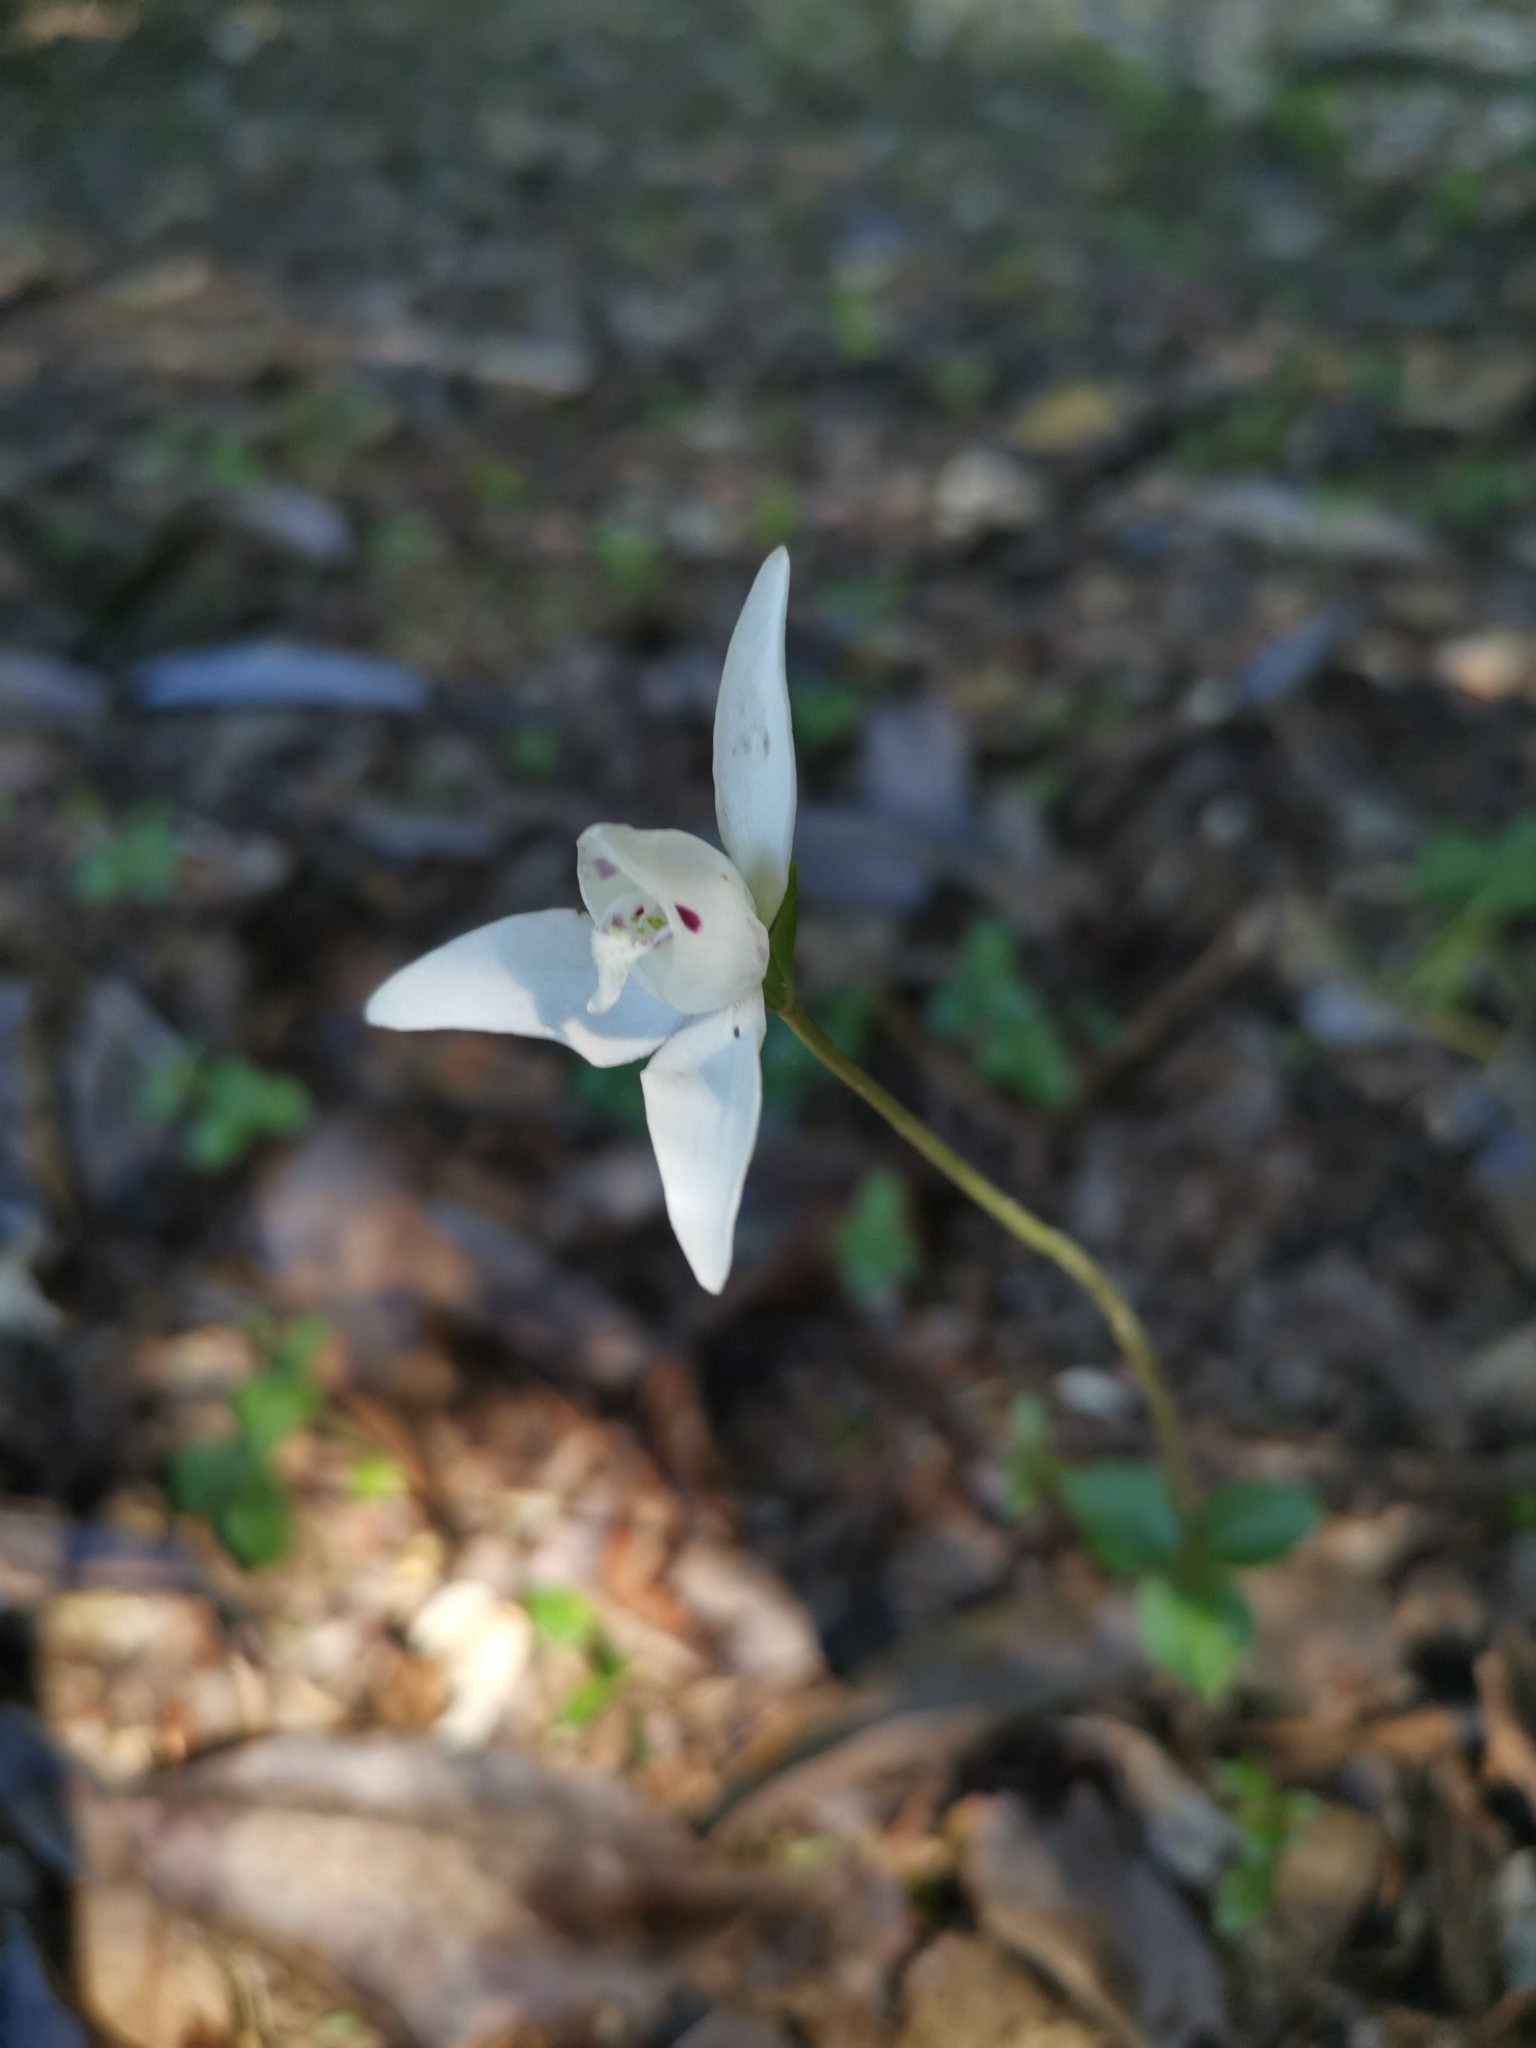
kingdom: Plantae
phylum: Tracheophyta
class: Liliopsida
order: Asparagales
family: Orchidaceae
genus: Codonorchis
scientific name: Codonorchis lessonii
